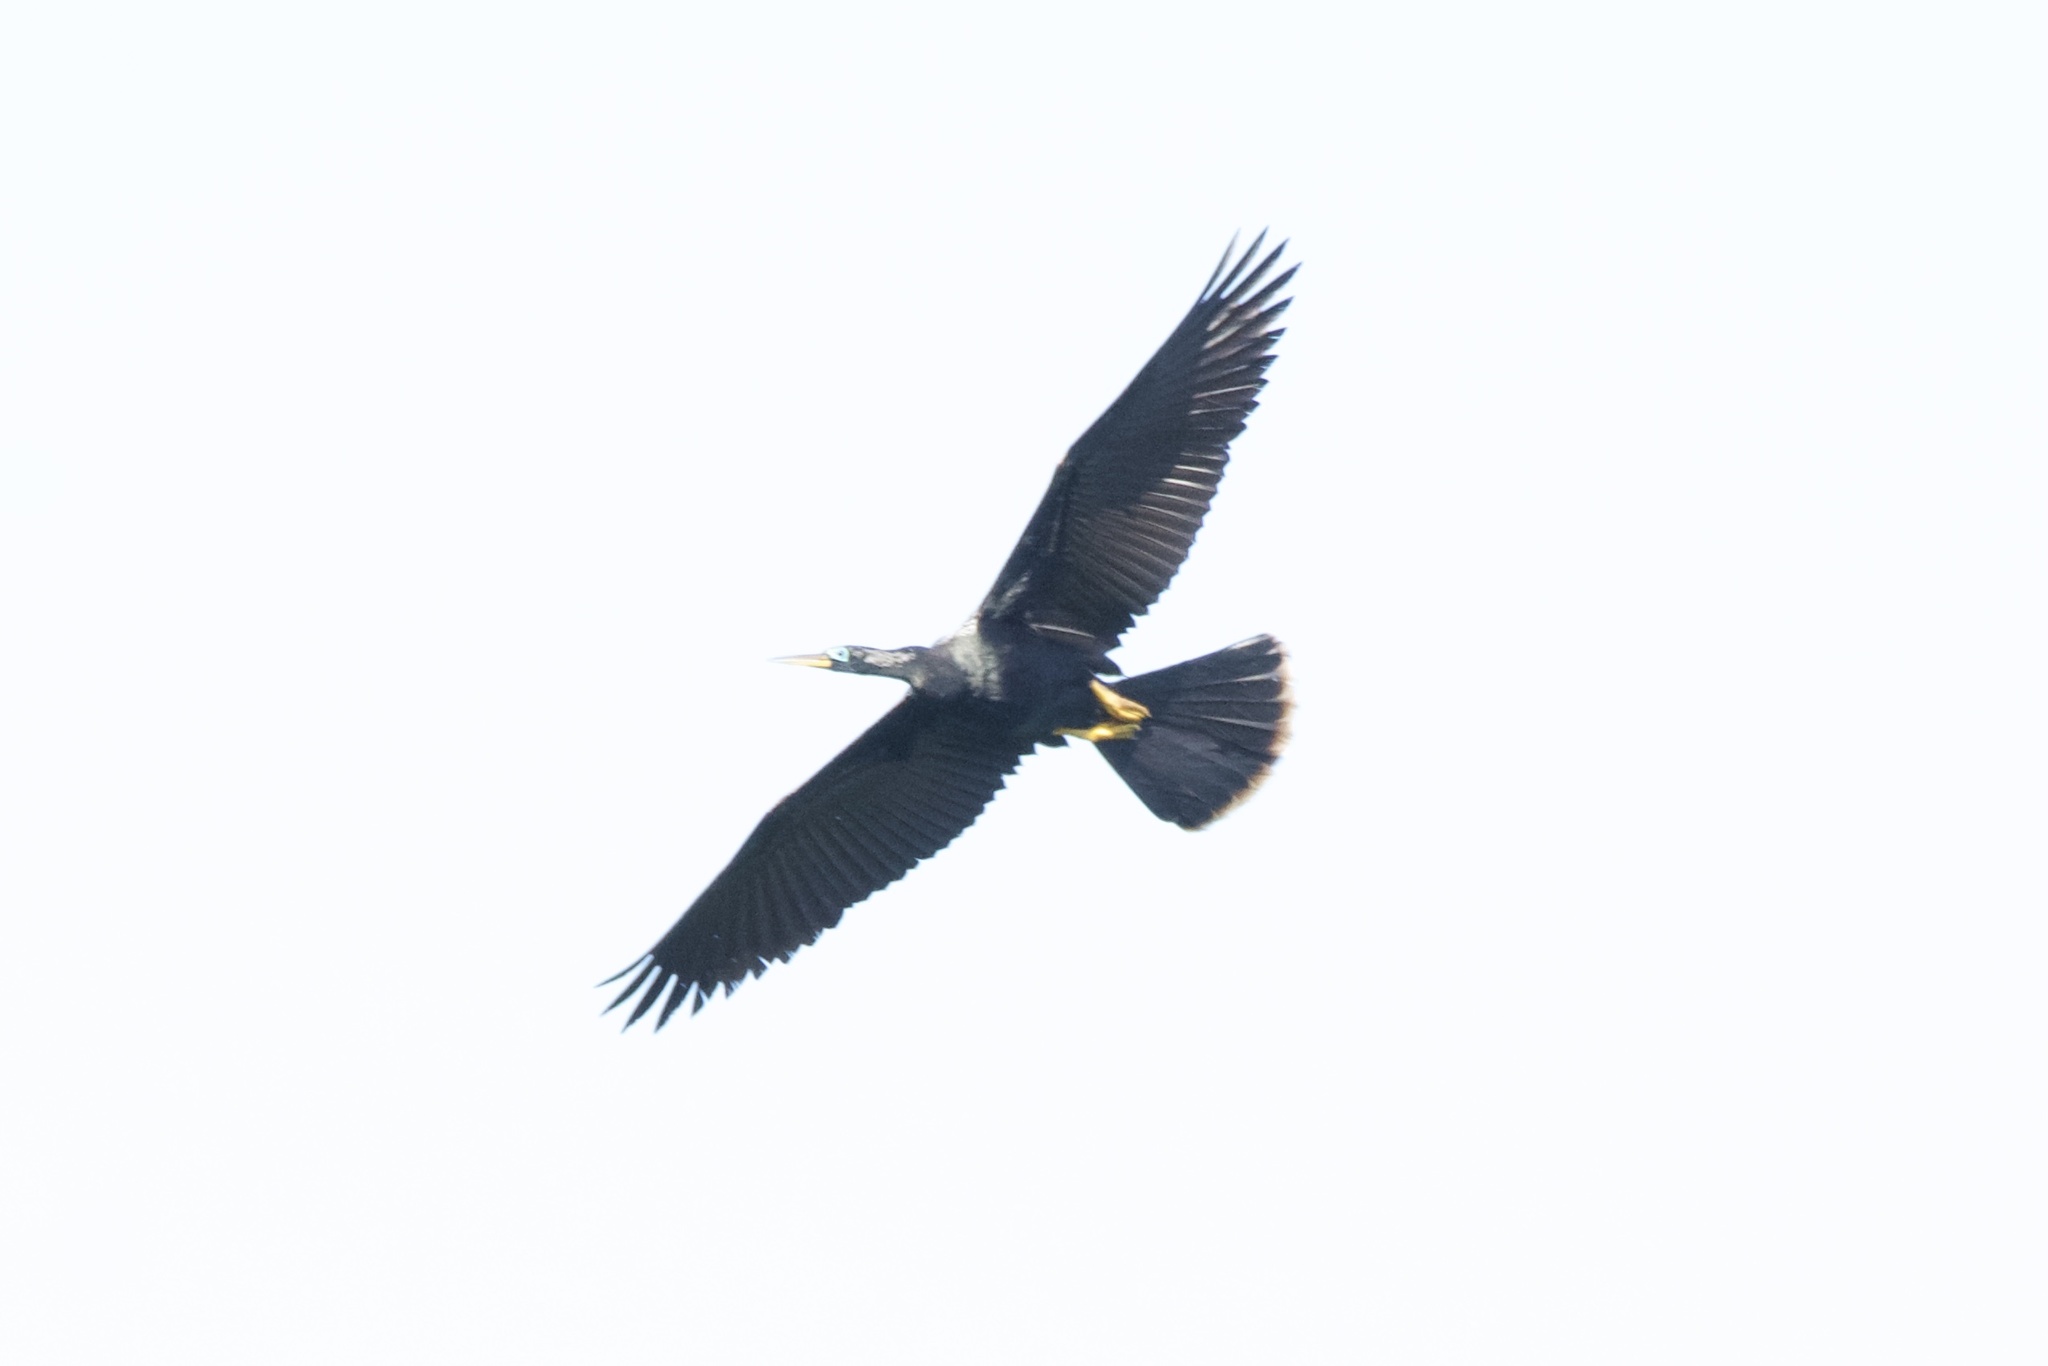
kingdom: Animalia
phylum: Chordata
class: Aves
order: Suliformes
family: Anhingidae
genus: Anhinga
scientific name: Anhinga anhinga
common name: Anhinga
